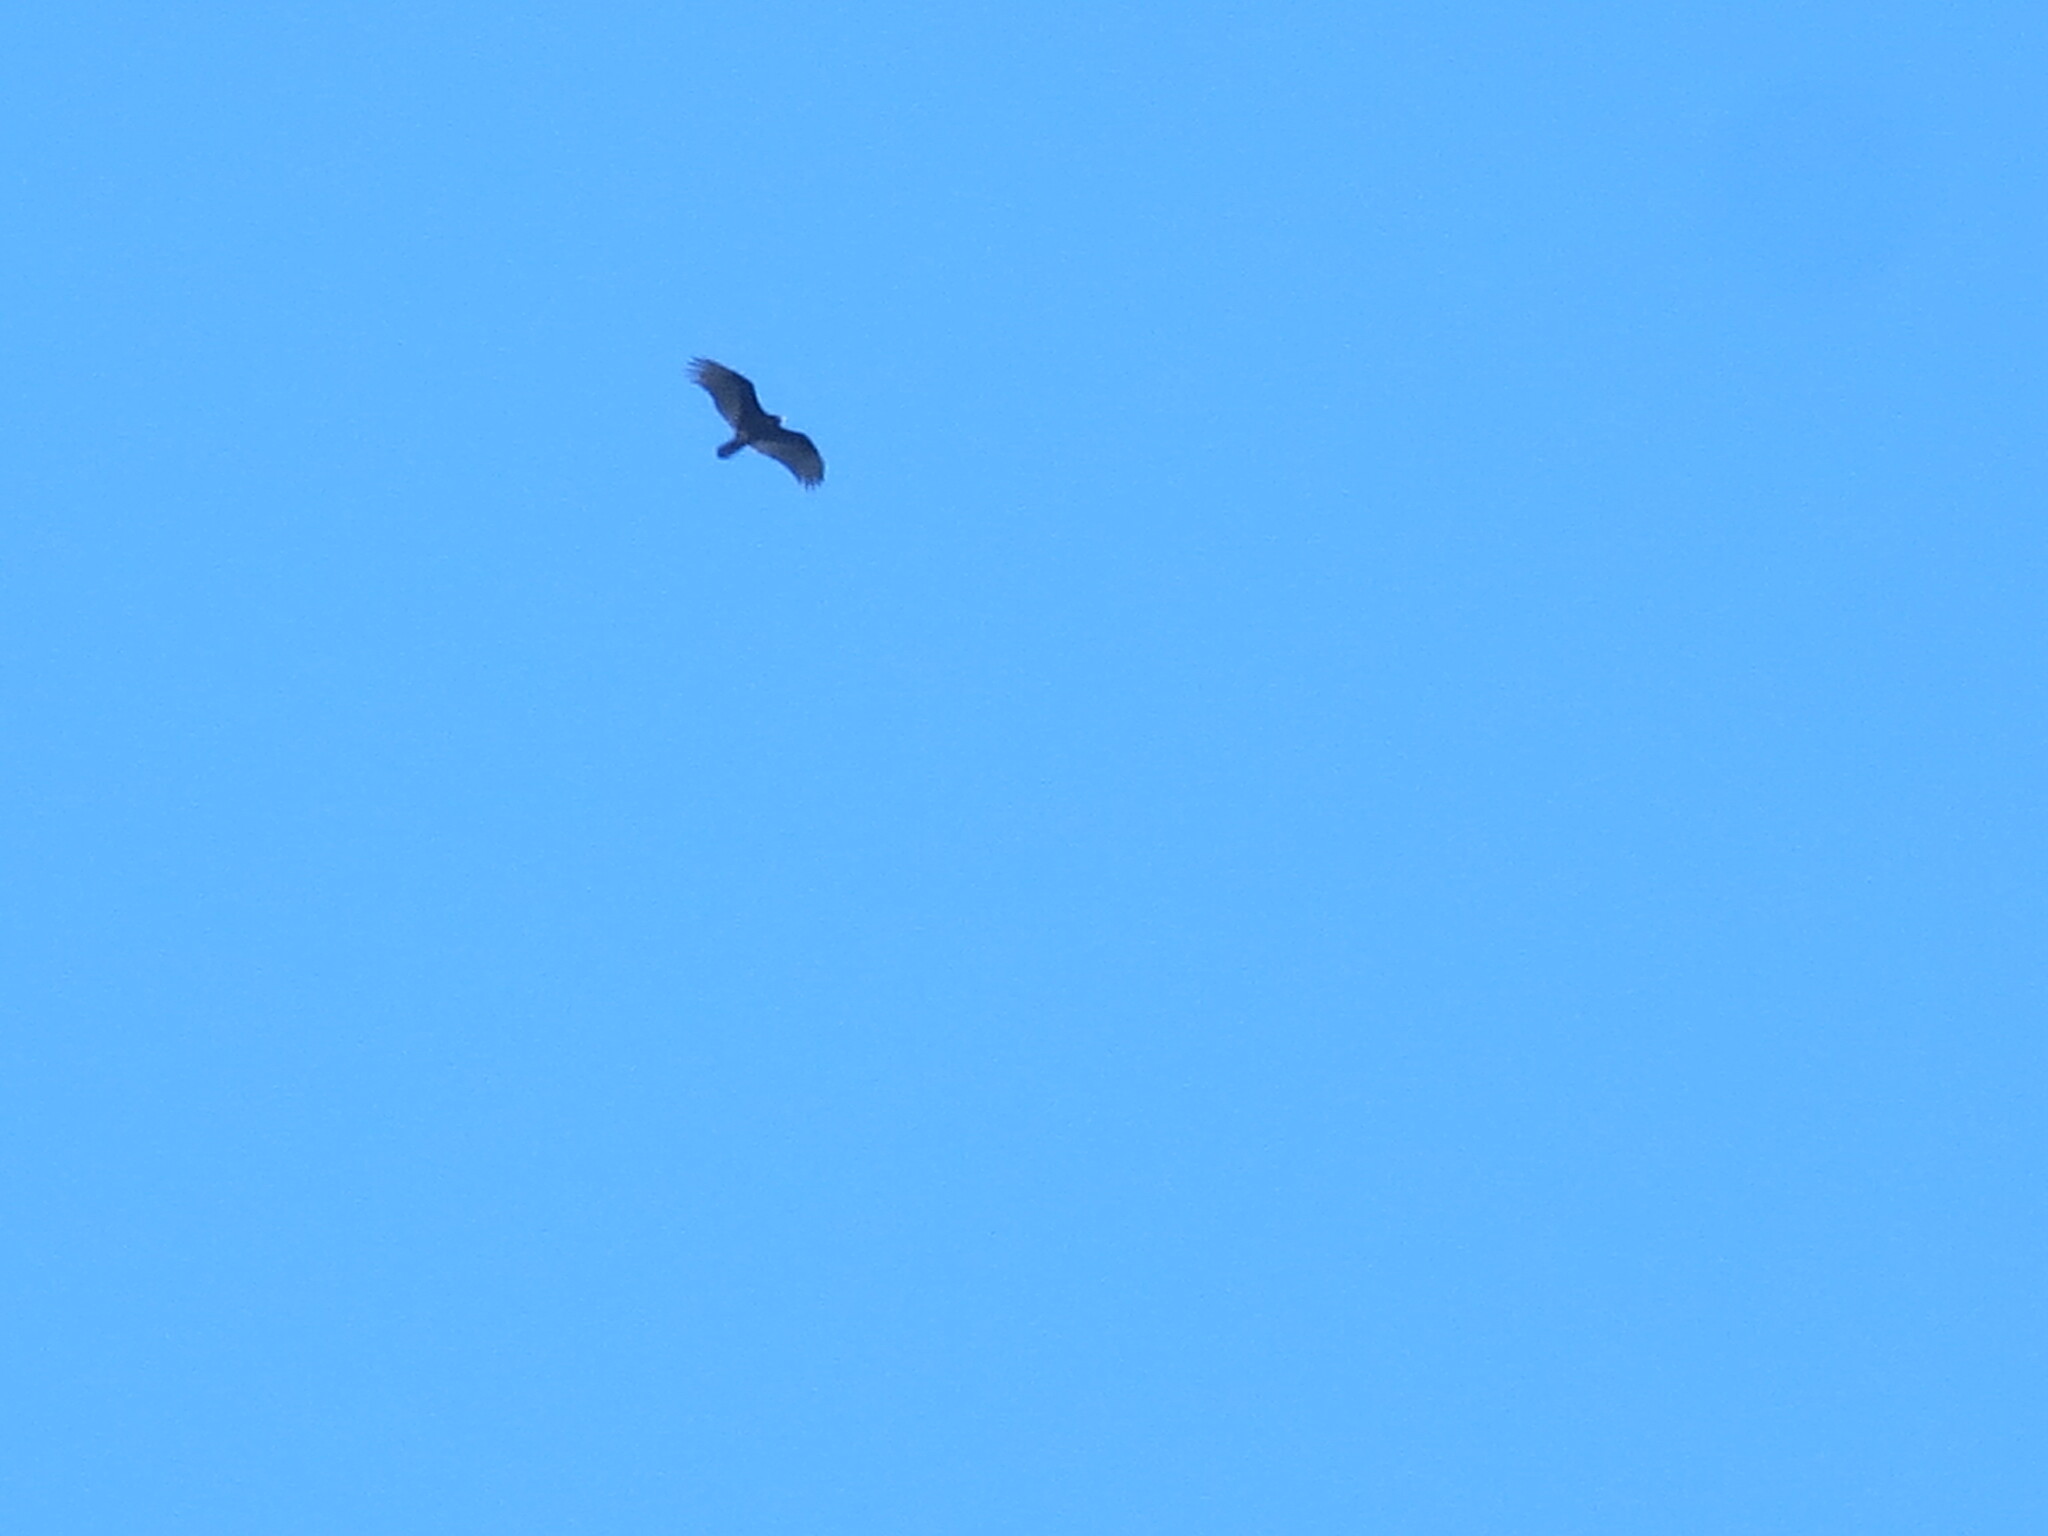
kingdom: Animalia
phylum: Chordata
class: Aves
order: Accipitriformes
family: Cathartidae
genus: Cathartes
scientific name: Cathartes aura
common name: Turkey vulture
